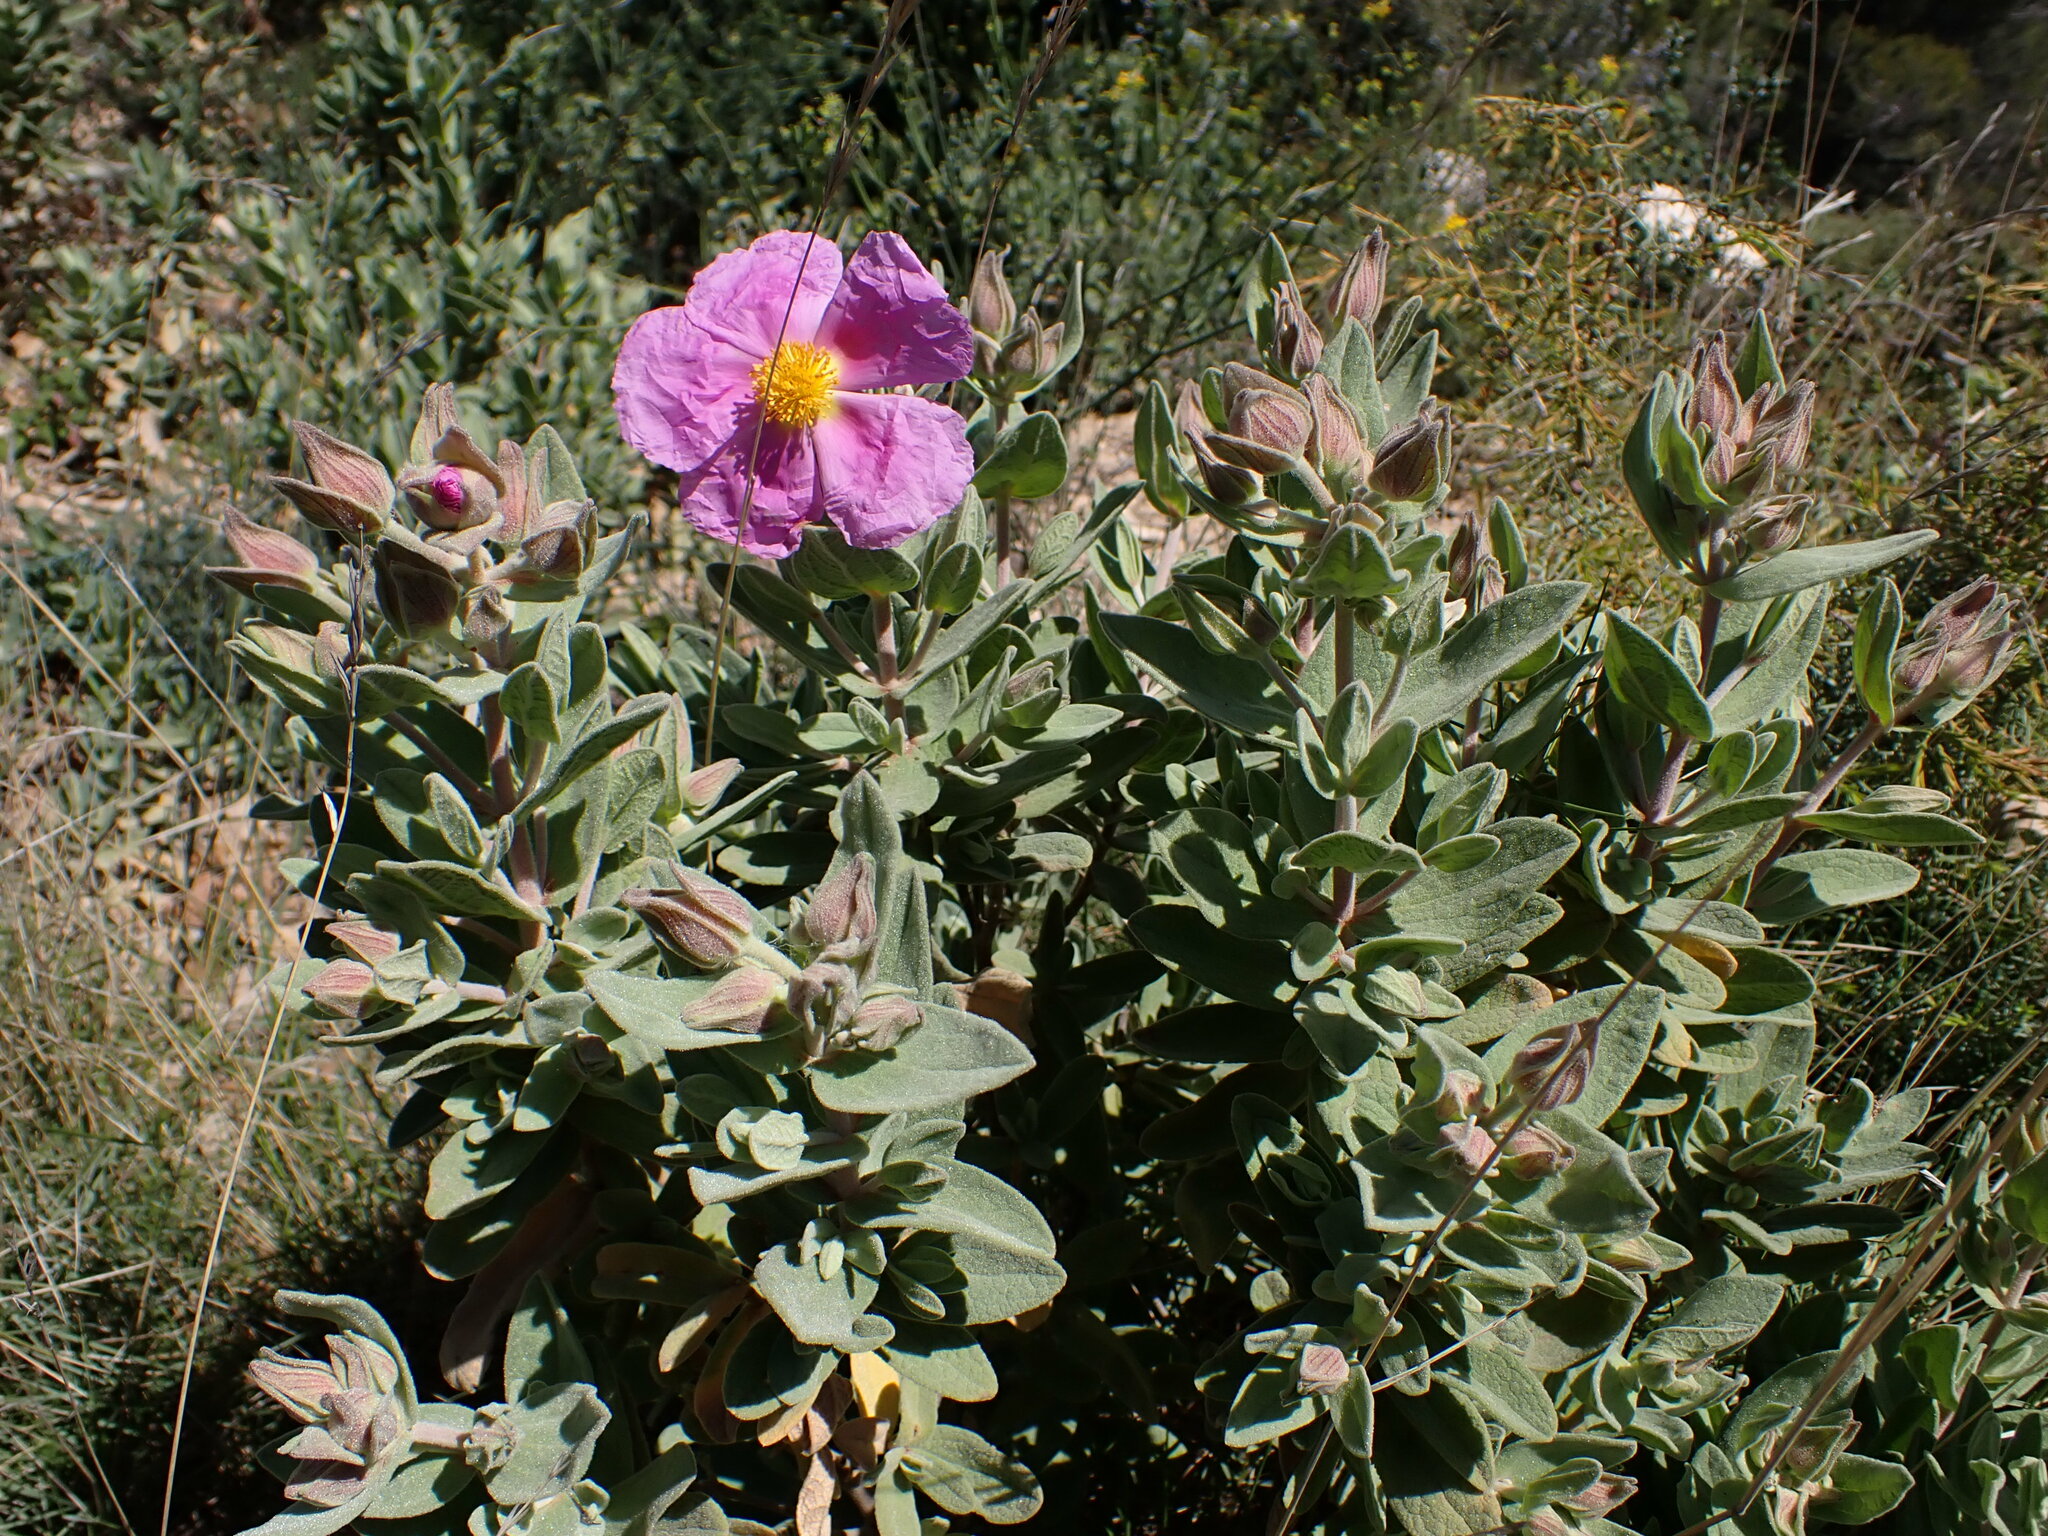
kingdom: Plantae
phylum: Tracheophyta
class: Magnoliopsida
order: Malvales
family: Cistaceae
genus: Cistus
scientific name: Cistus albidus
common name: White-leaf rock-rose
